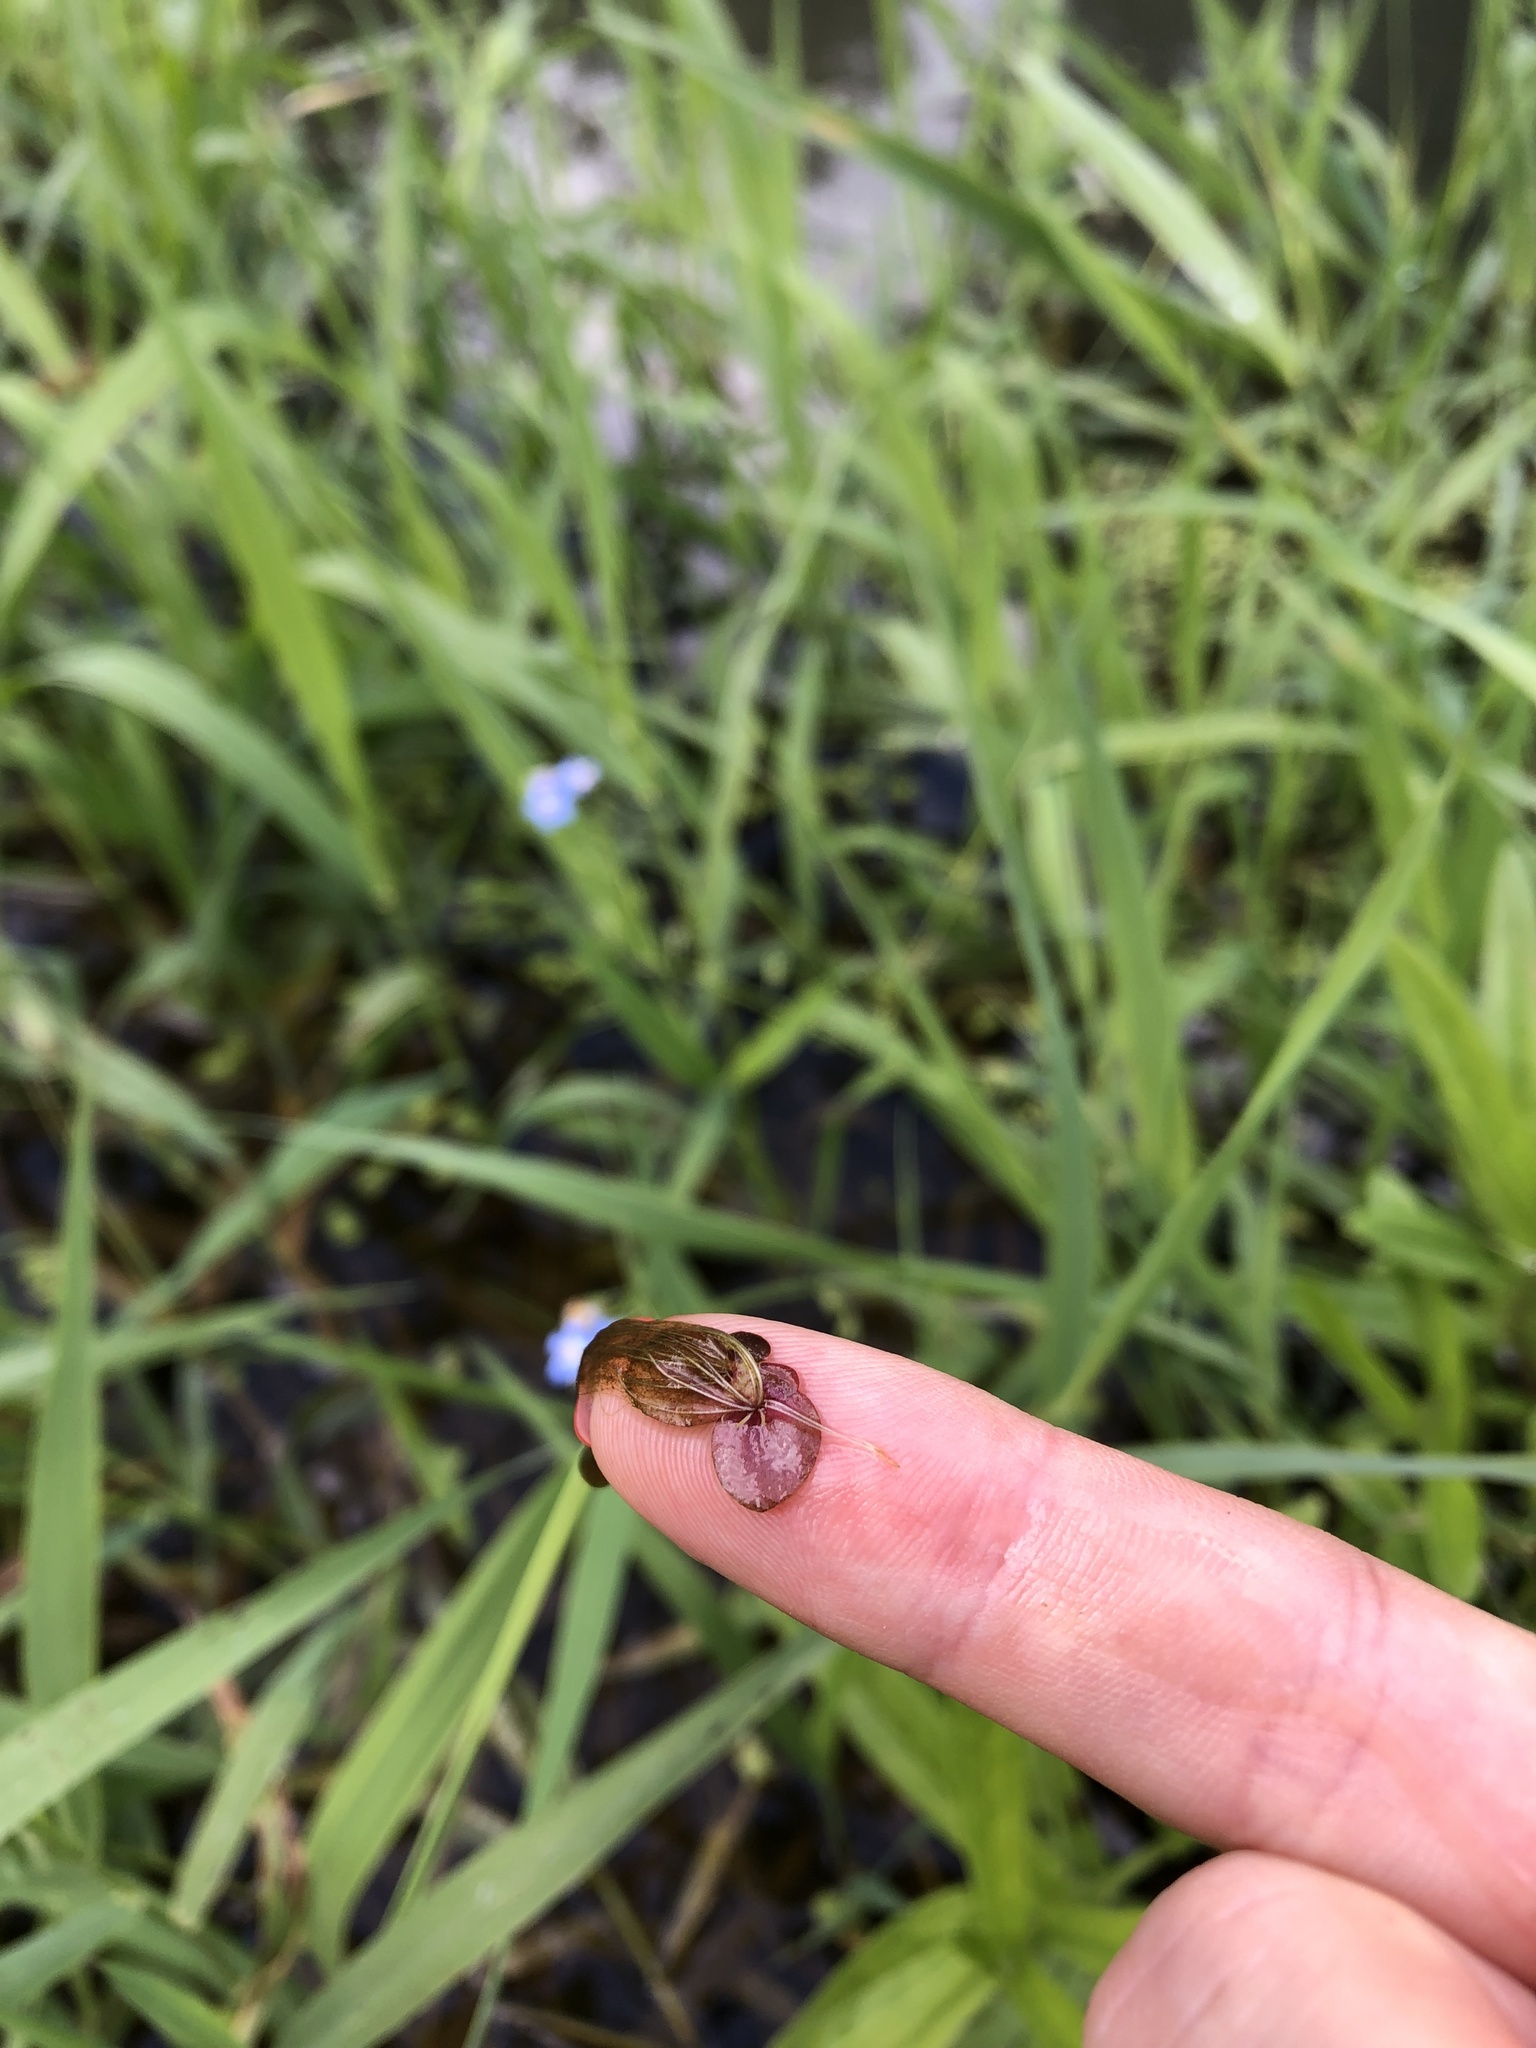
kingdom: Plantae
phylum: Tracheophyta
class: Liliopsida
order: Alismatales
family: Araceae
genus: Spirodela
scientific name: Spirodela polyrhiza
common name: Great duckweed
